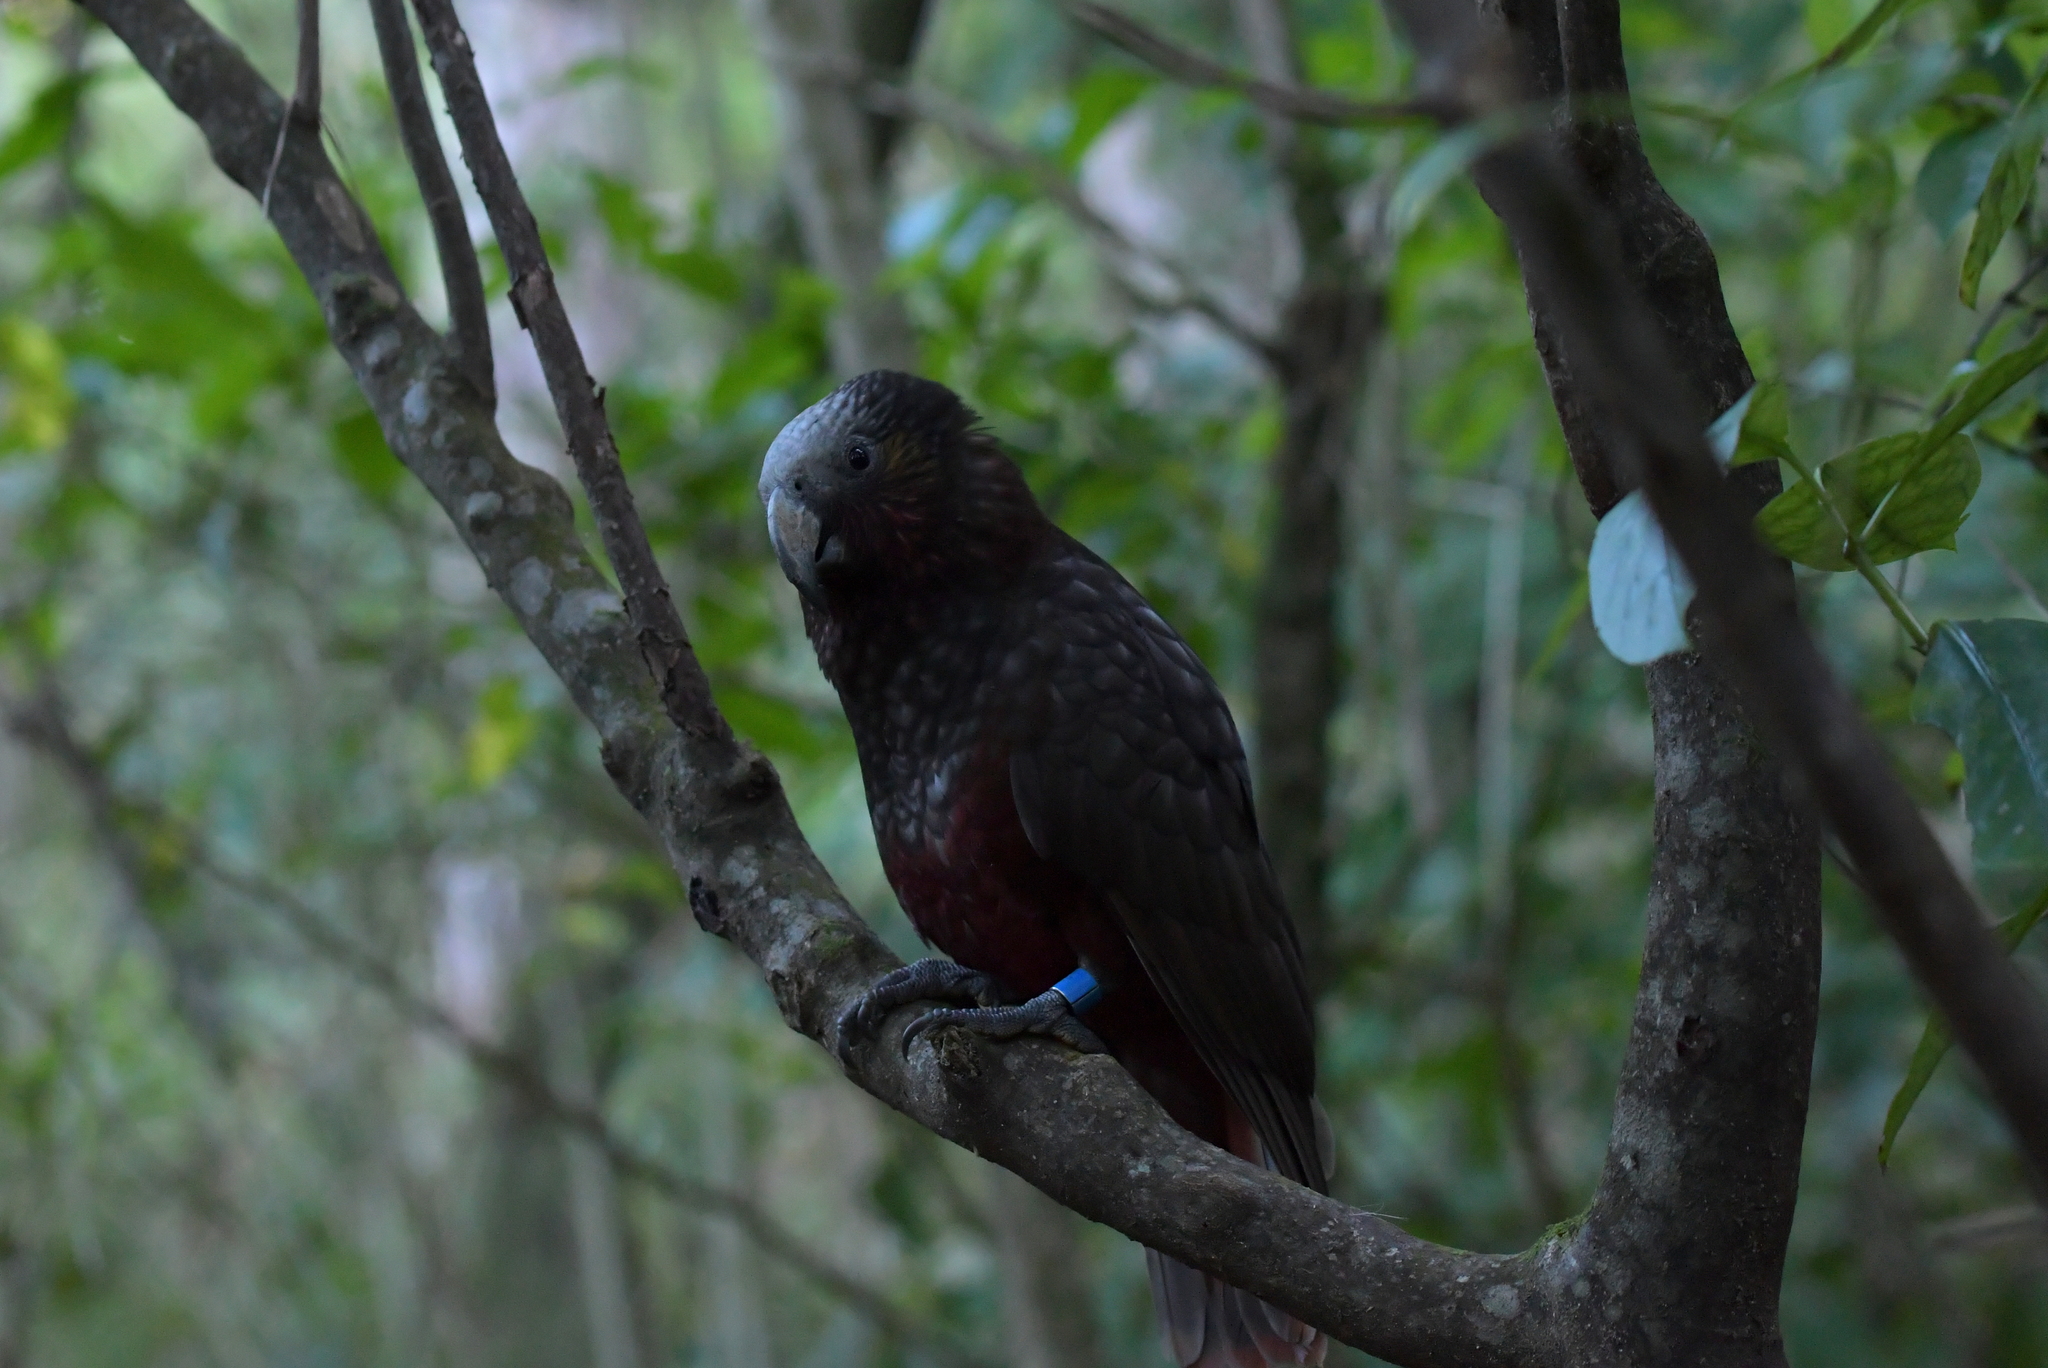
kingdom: Animalia
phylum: Chordata
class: Aves
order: Psittaciformes
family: Psittacidae
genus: Nestor
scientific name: Nestor meridionalis
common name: New zealand kaka
